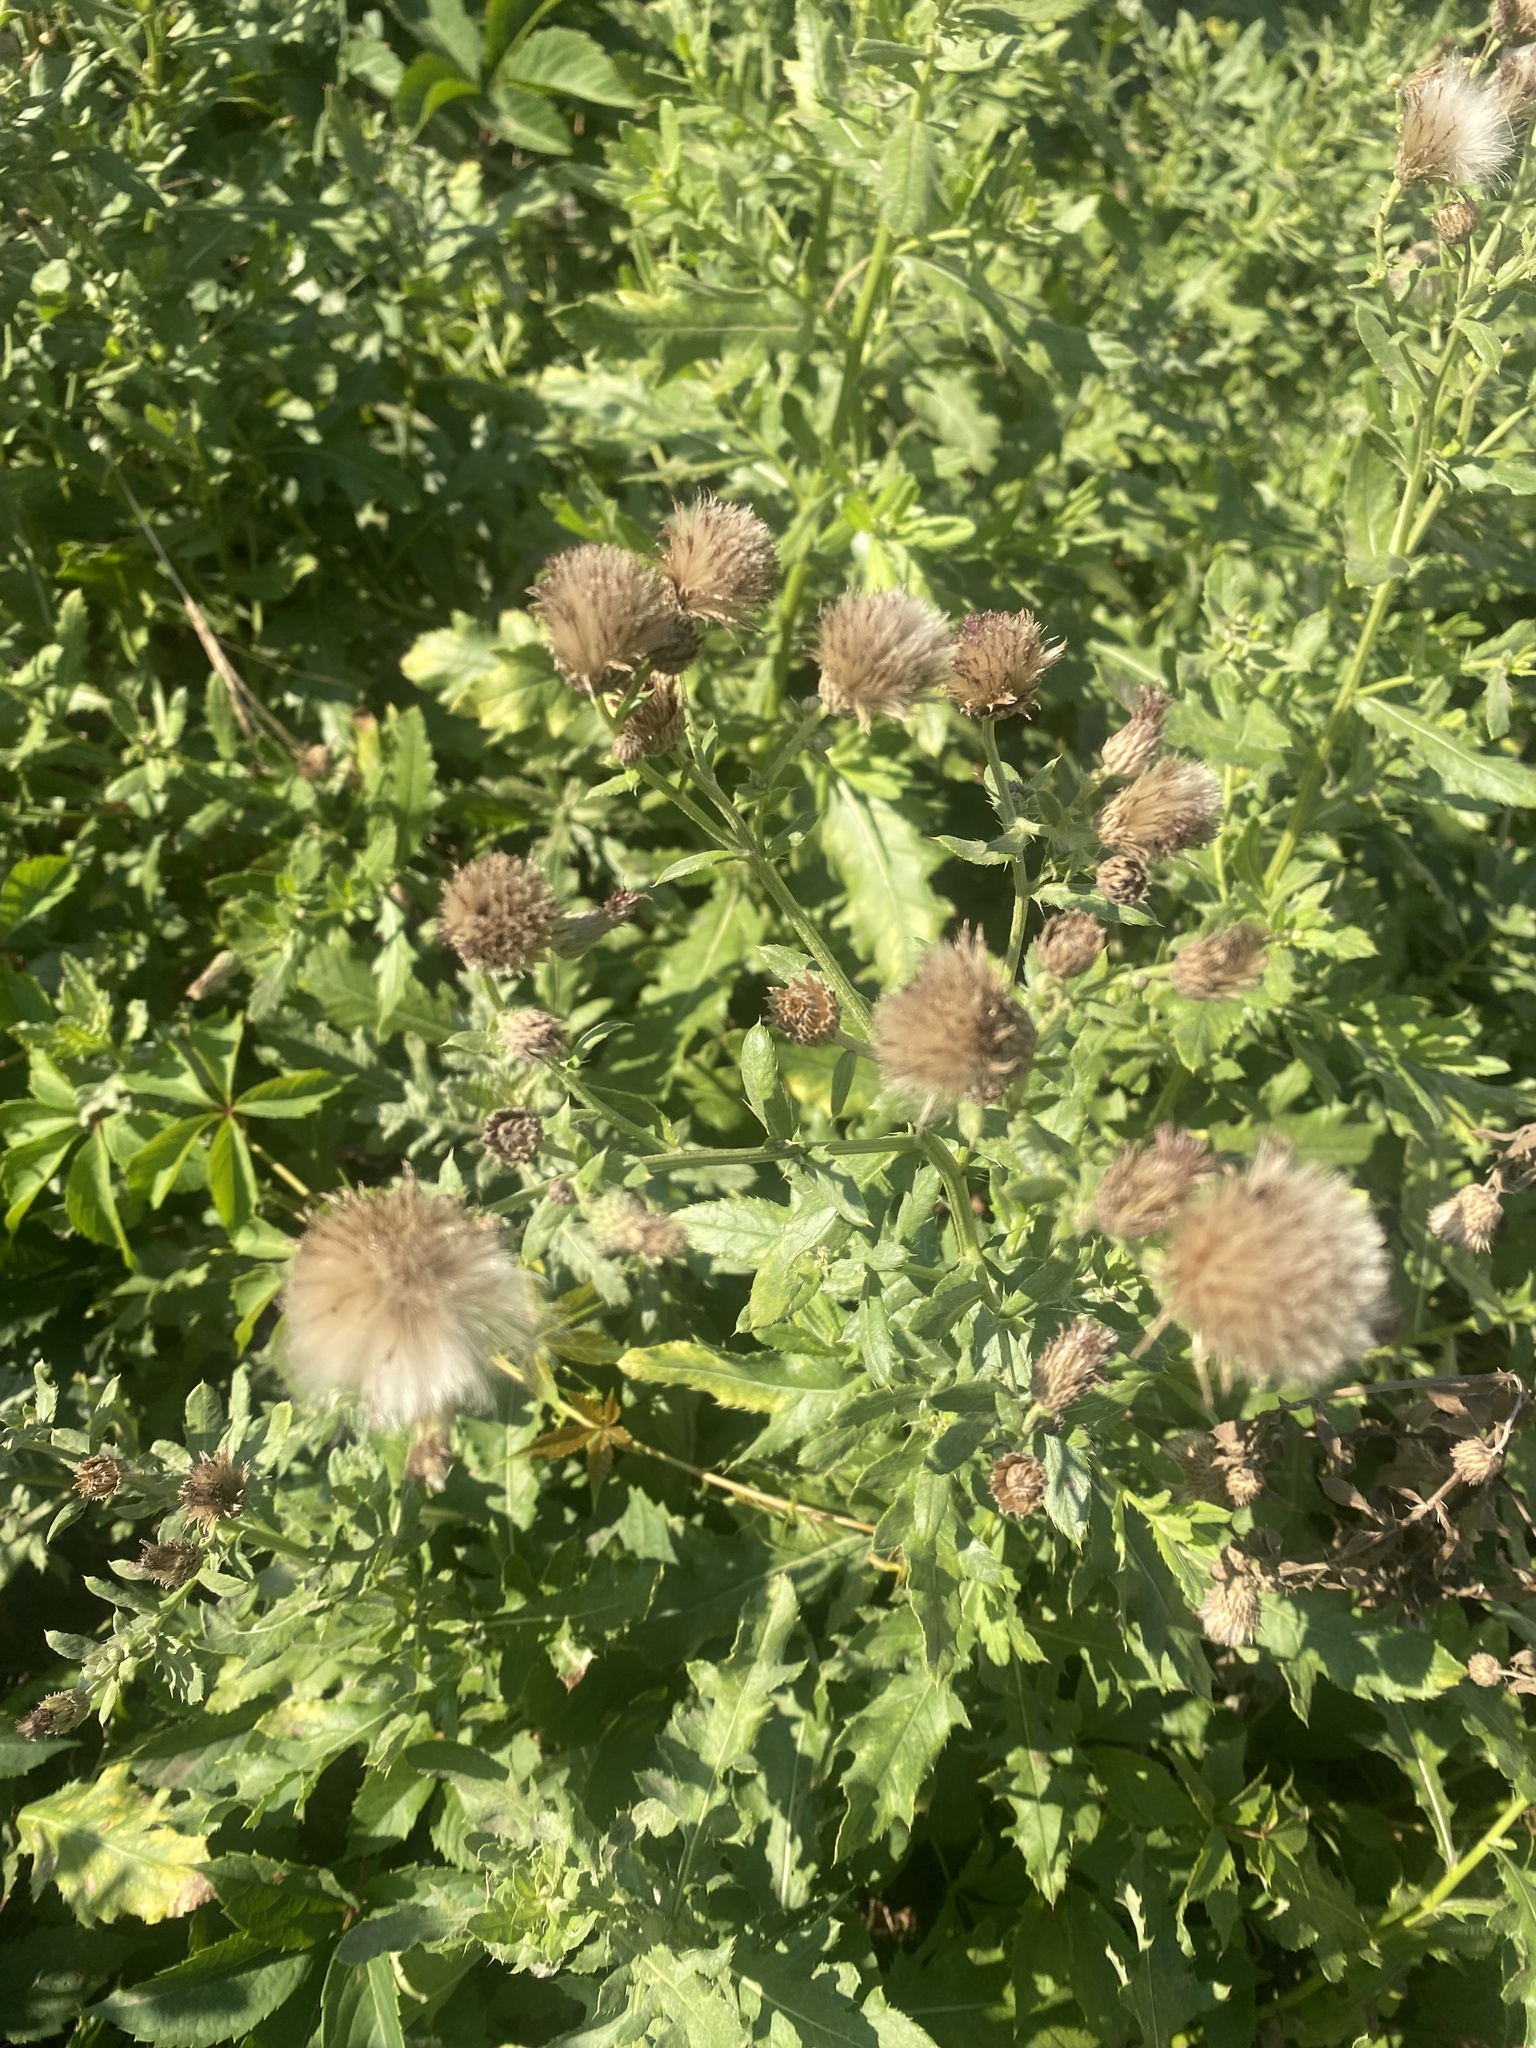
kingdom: Plantae
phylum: Tracheophyta
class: Magnoliopsida
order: Asterales
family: Asteraceae
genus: Cirsium
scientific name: Cirsium arvense
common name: Creeping thistle
